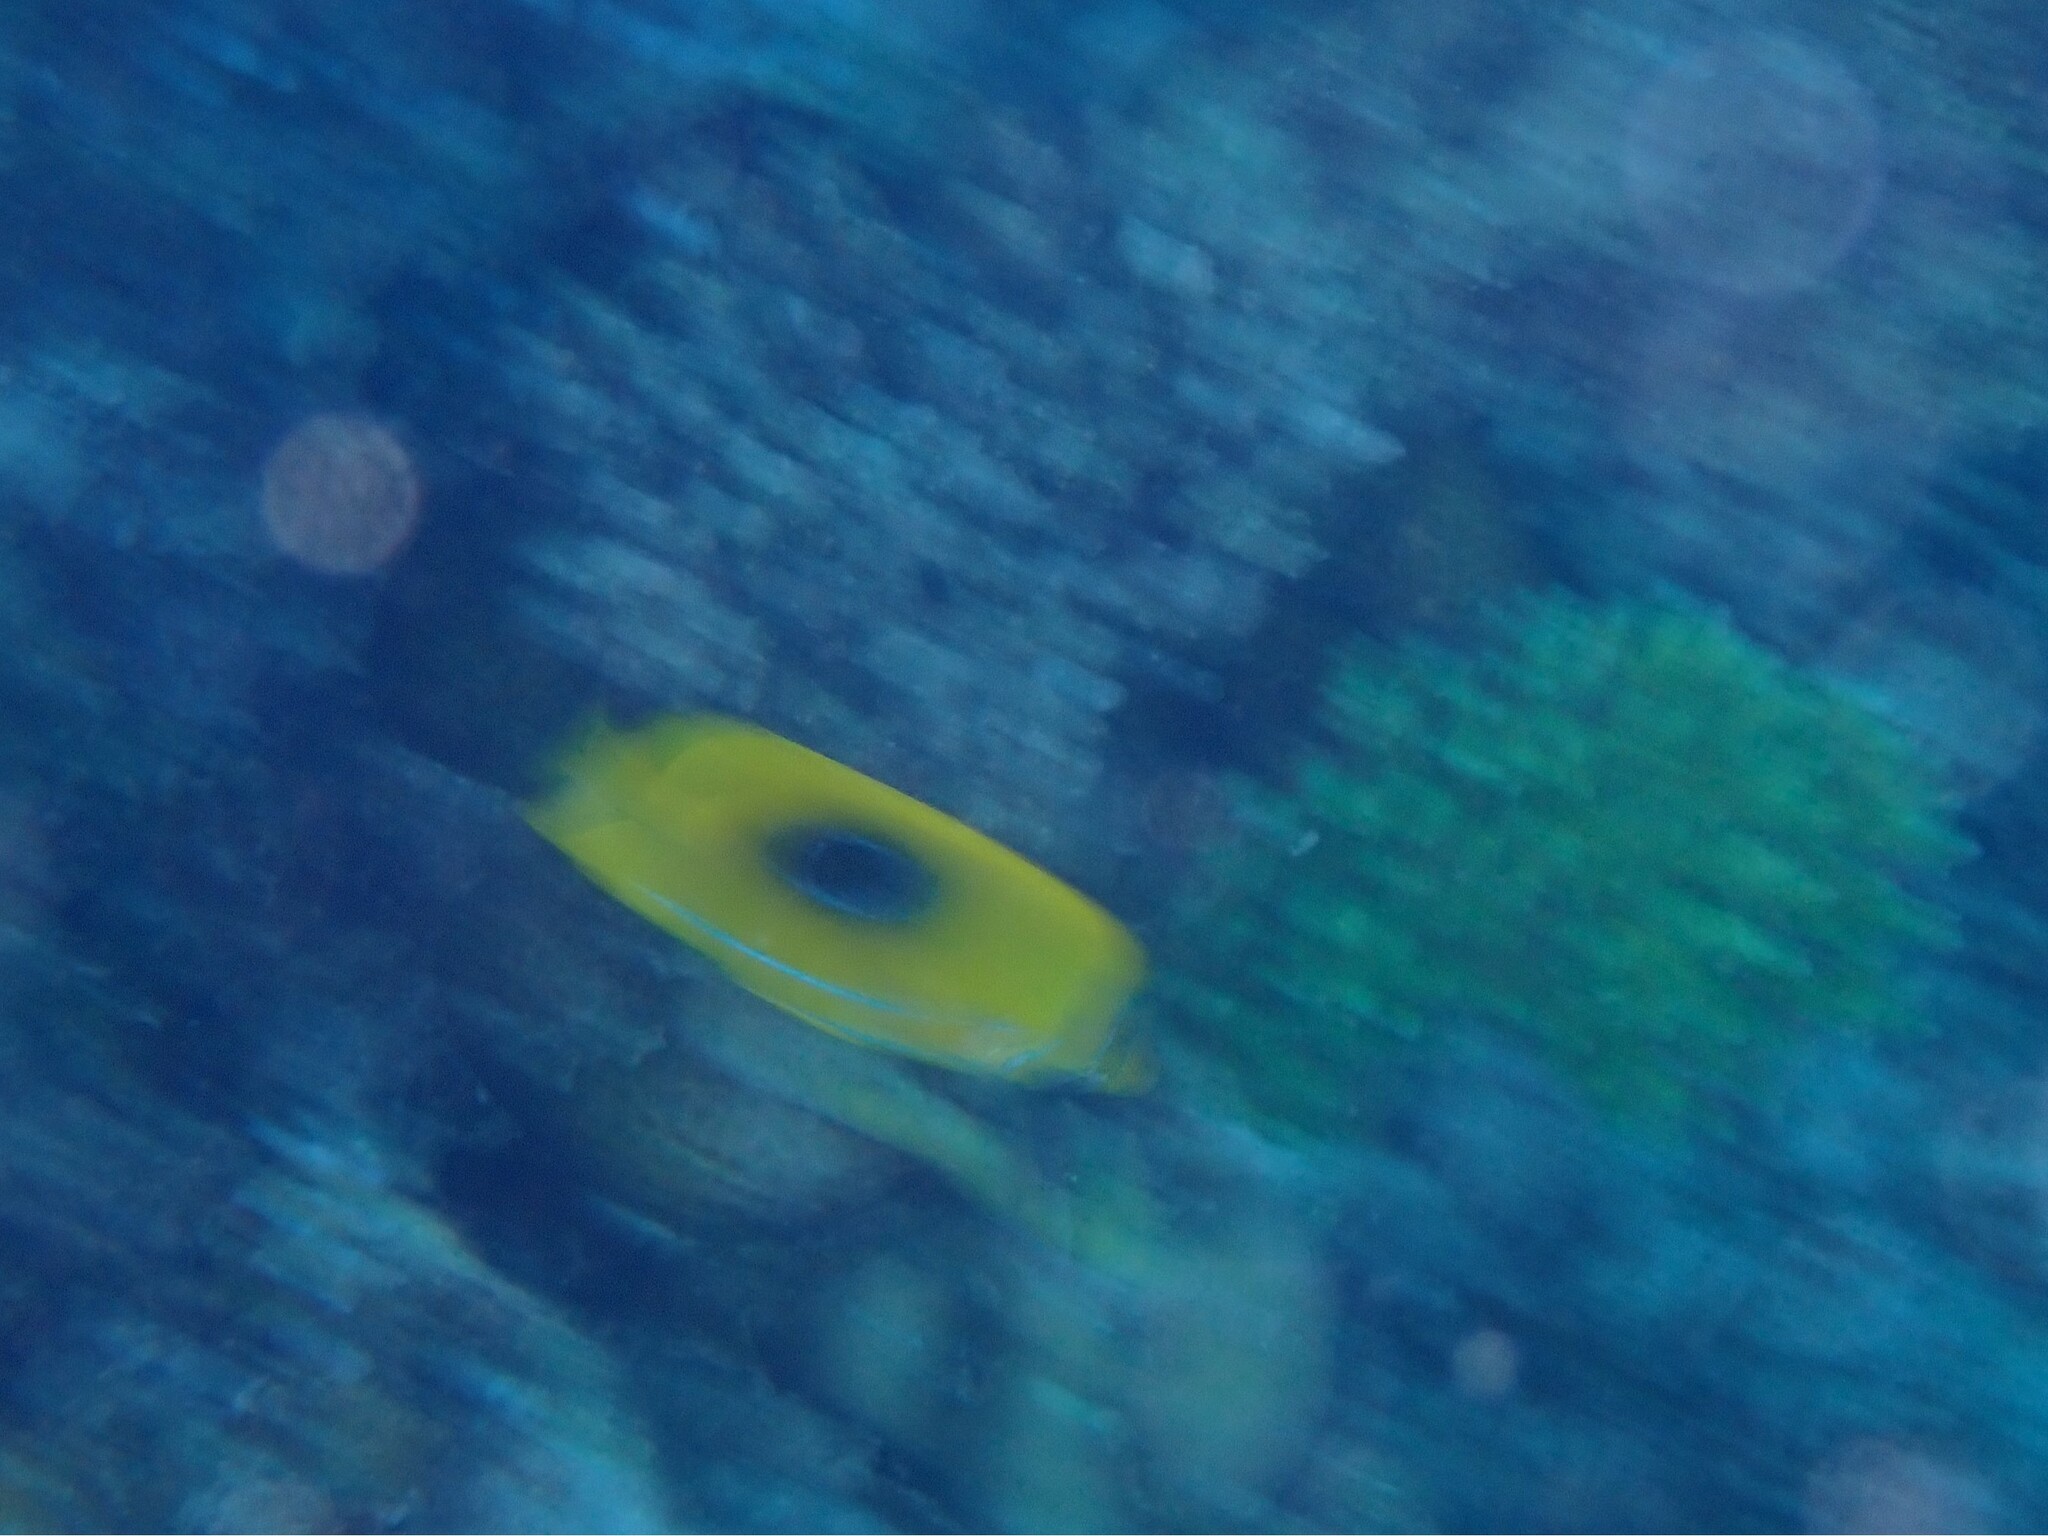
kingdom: Animalia
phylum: Chordata
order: Perciformes
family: Chaetodontidae
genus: Chaetodon
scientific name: Chaetodon bennetti
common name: Bennett's butterflyfish
